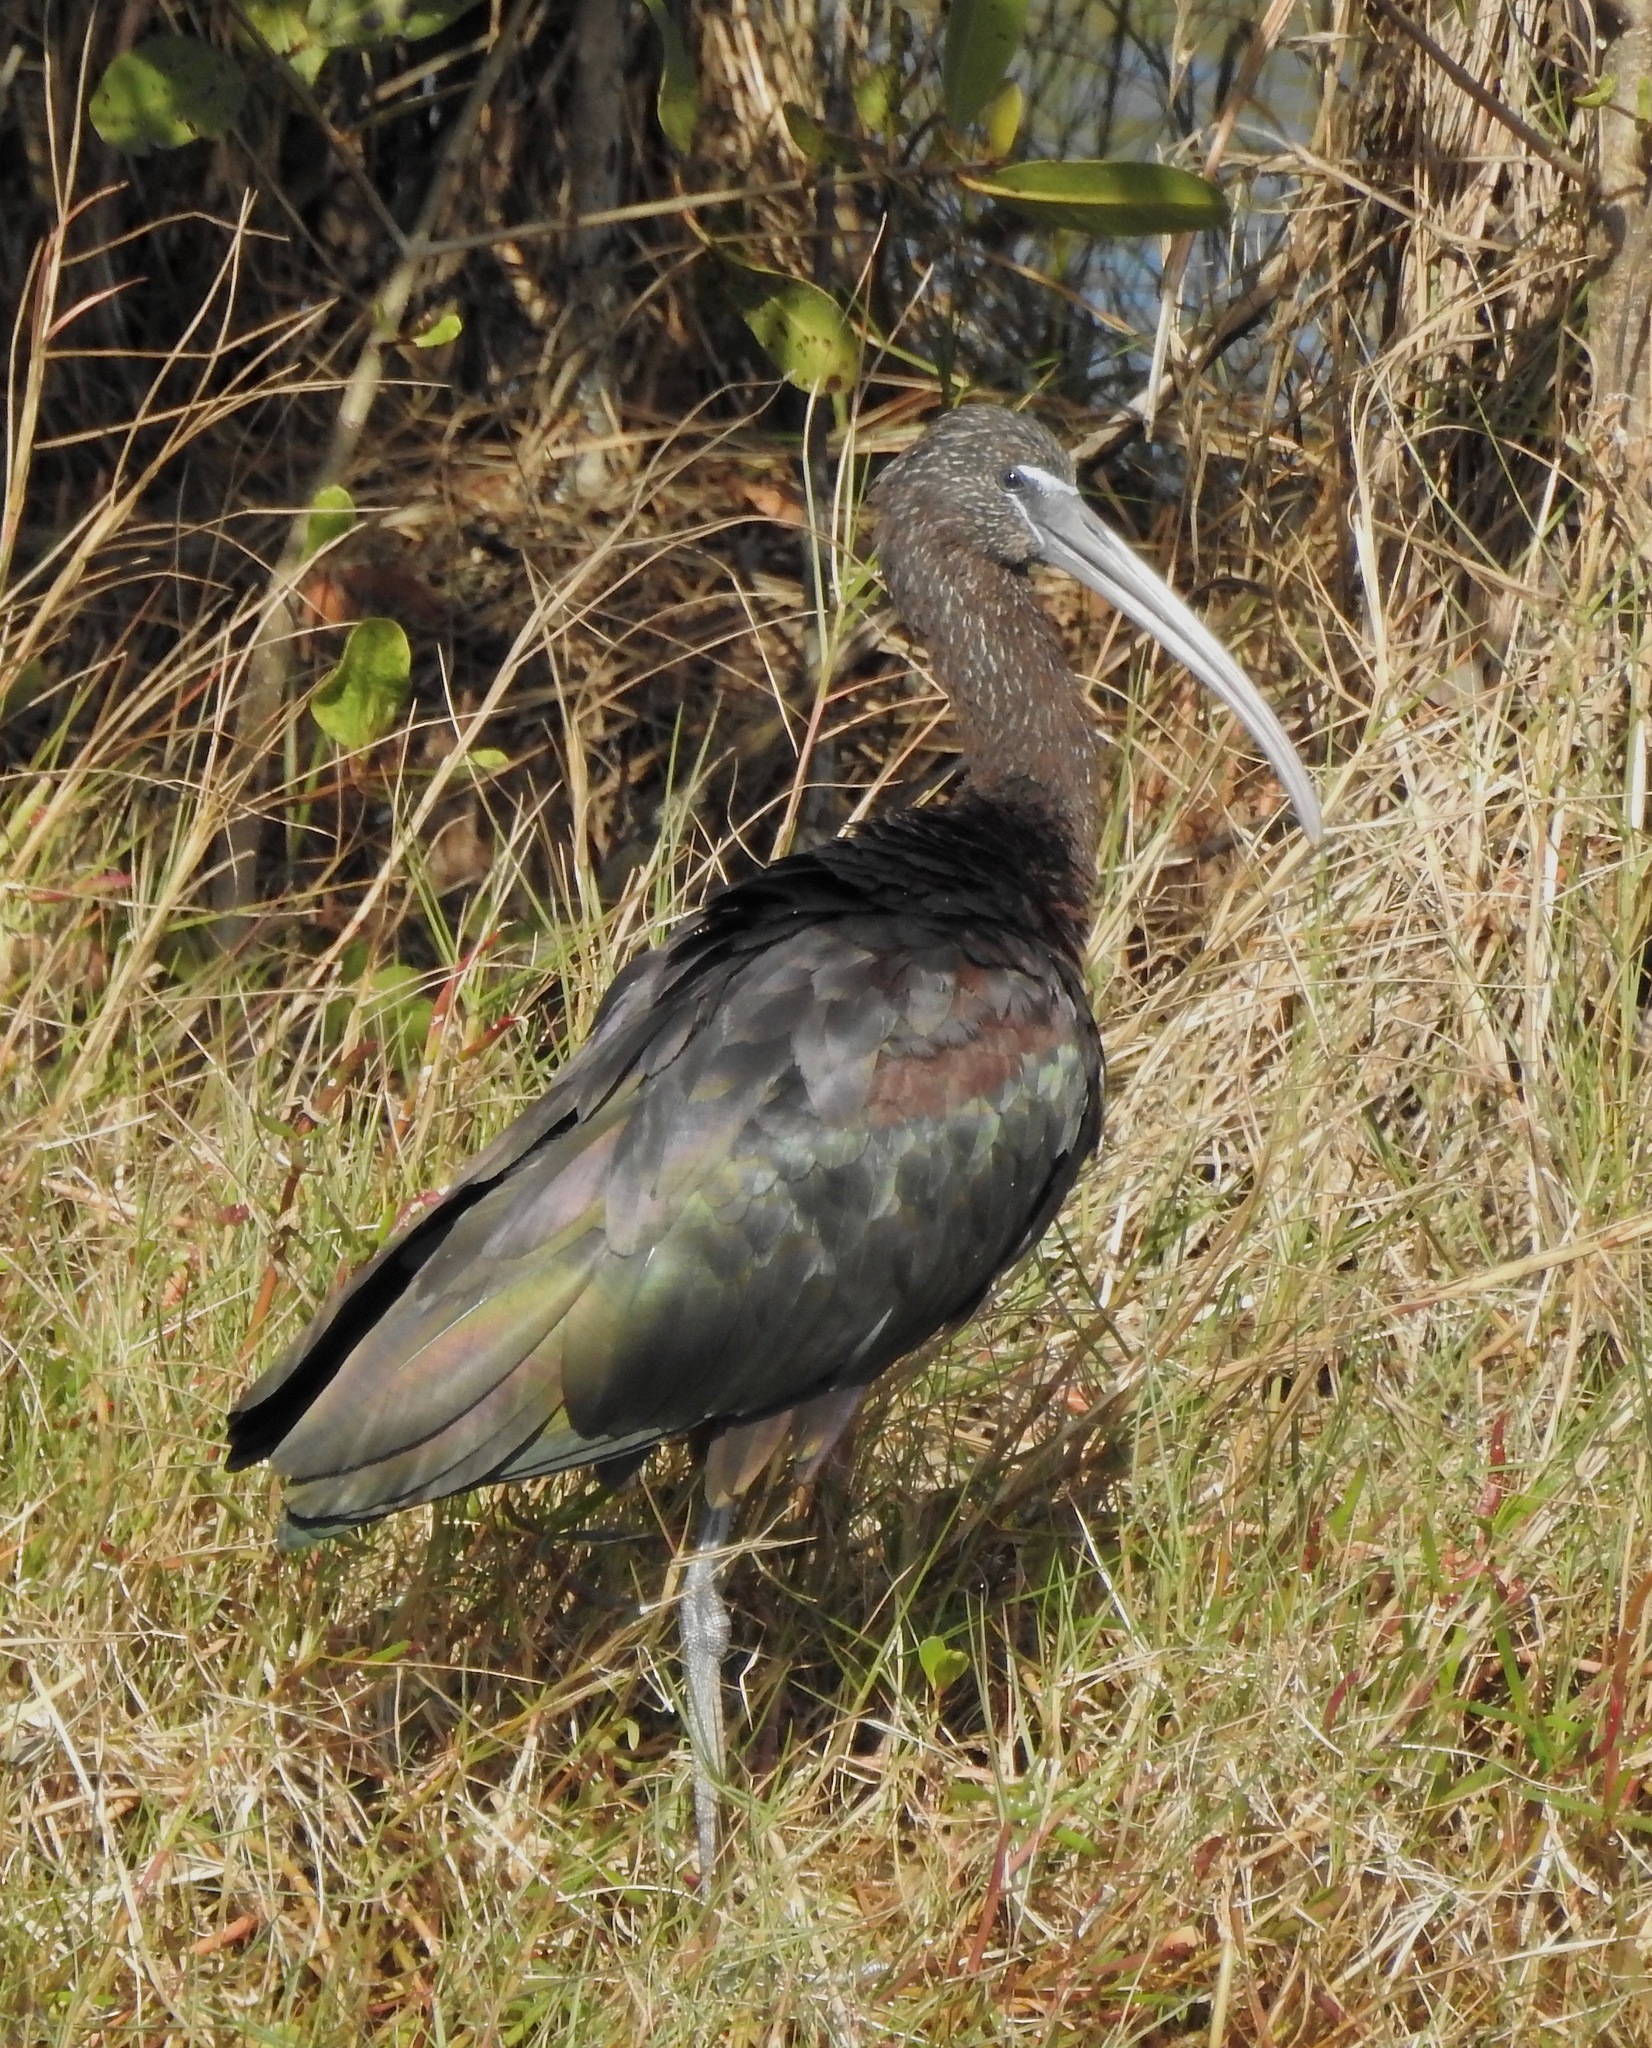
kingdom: Animalia
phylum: Chordata
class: Aves
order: Pelecaniformes
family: Threskiornithidae
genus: Plegadis
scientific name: Plegadis falcinellus
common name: Glossy ibis
